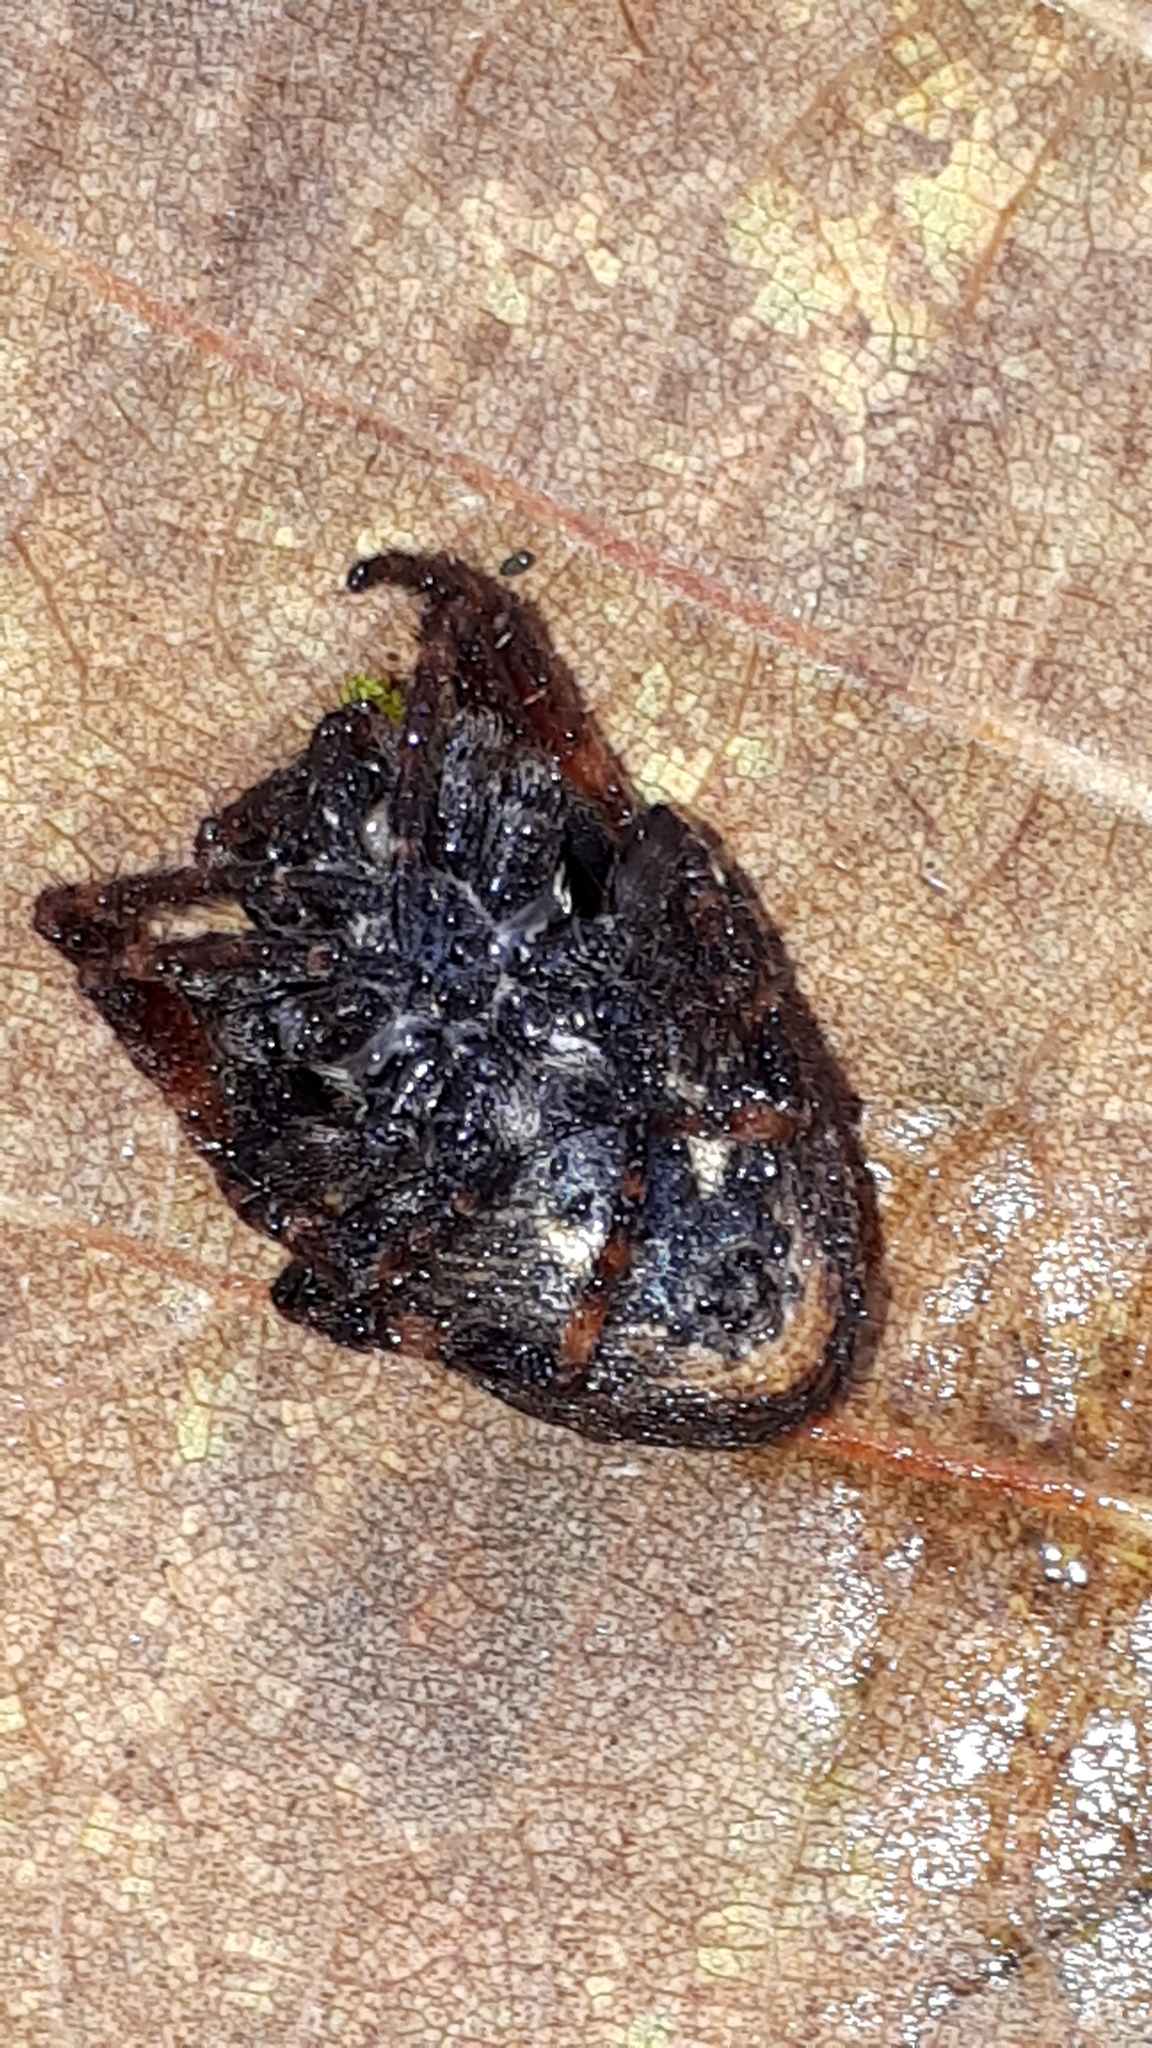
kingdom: Animalia
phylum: Arthropoda
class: Arachnida
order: Araneae
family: Araneidae
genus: Nuctenea
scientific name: Nuctenea umbratica
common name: Toad spider
